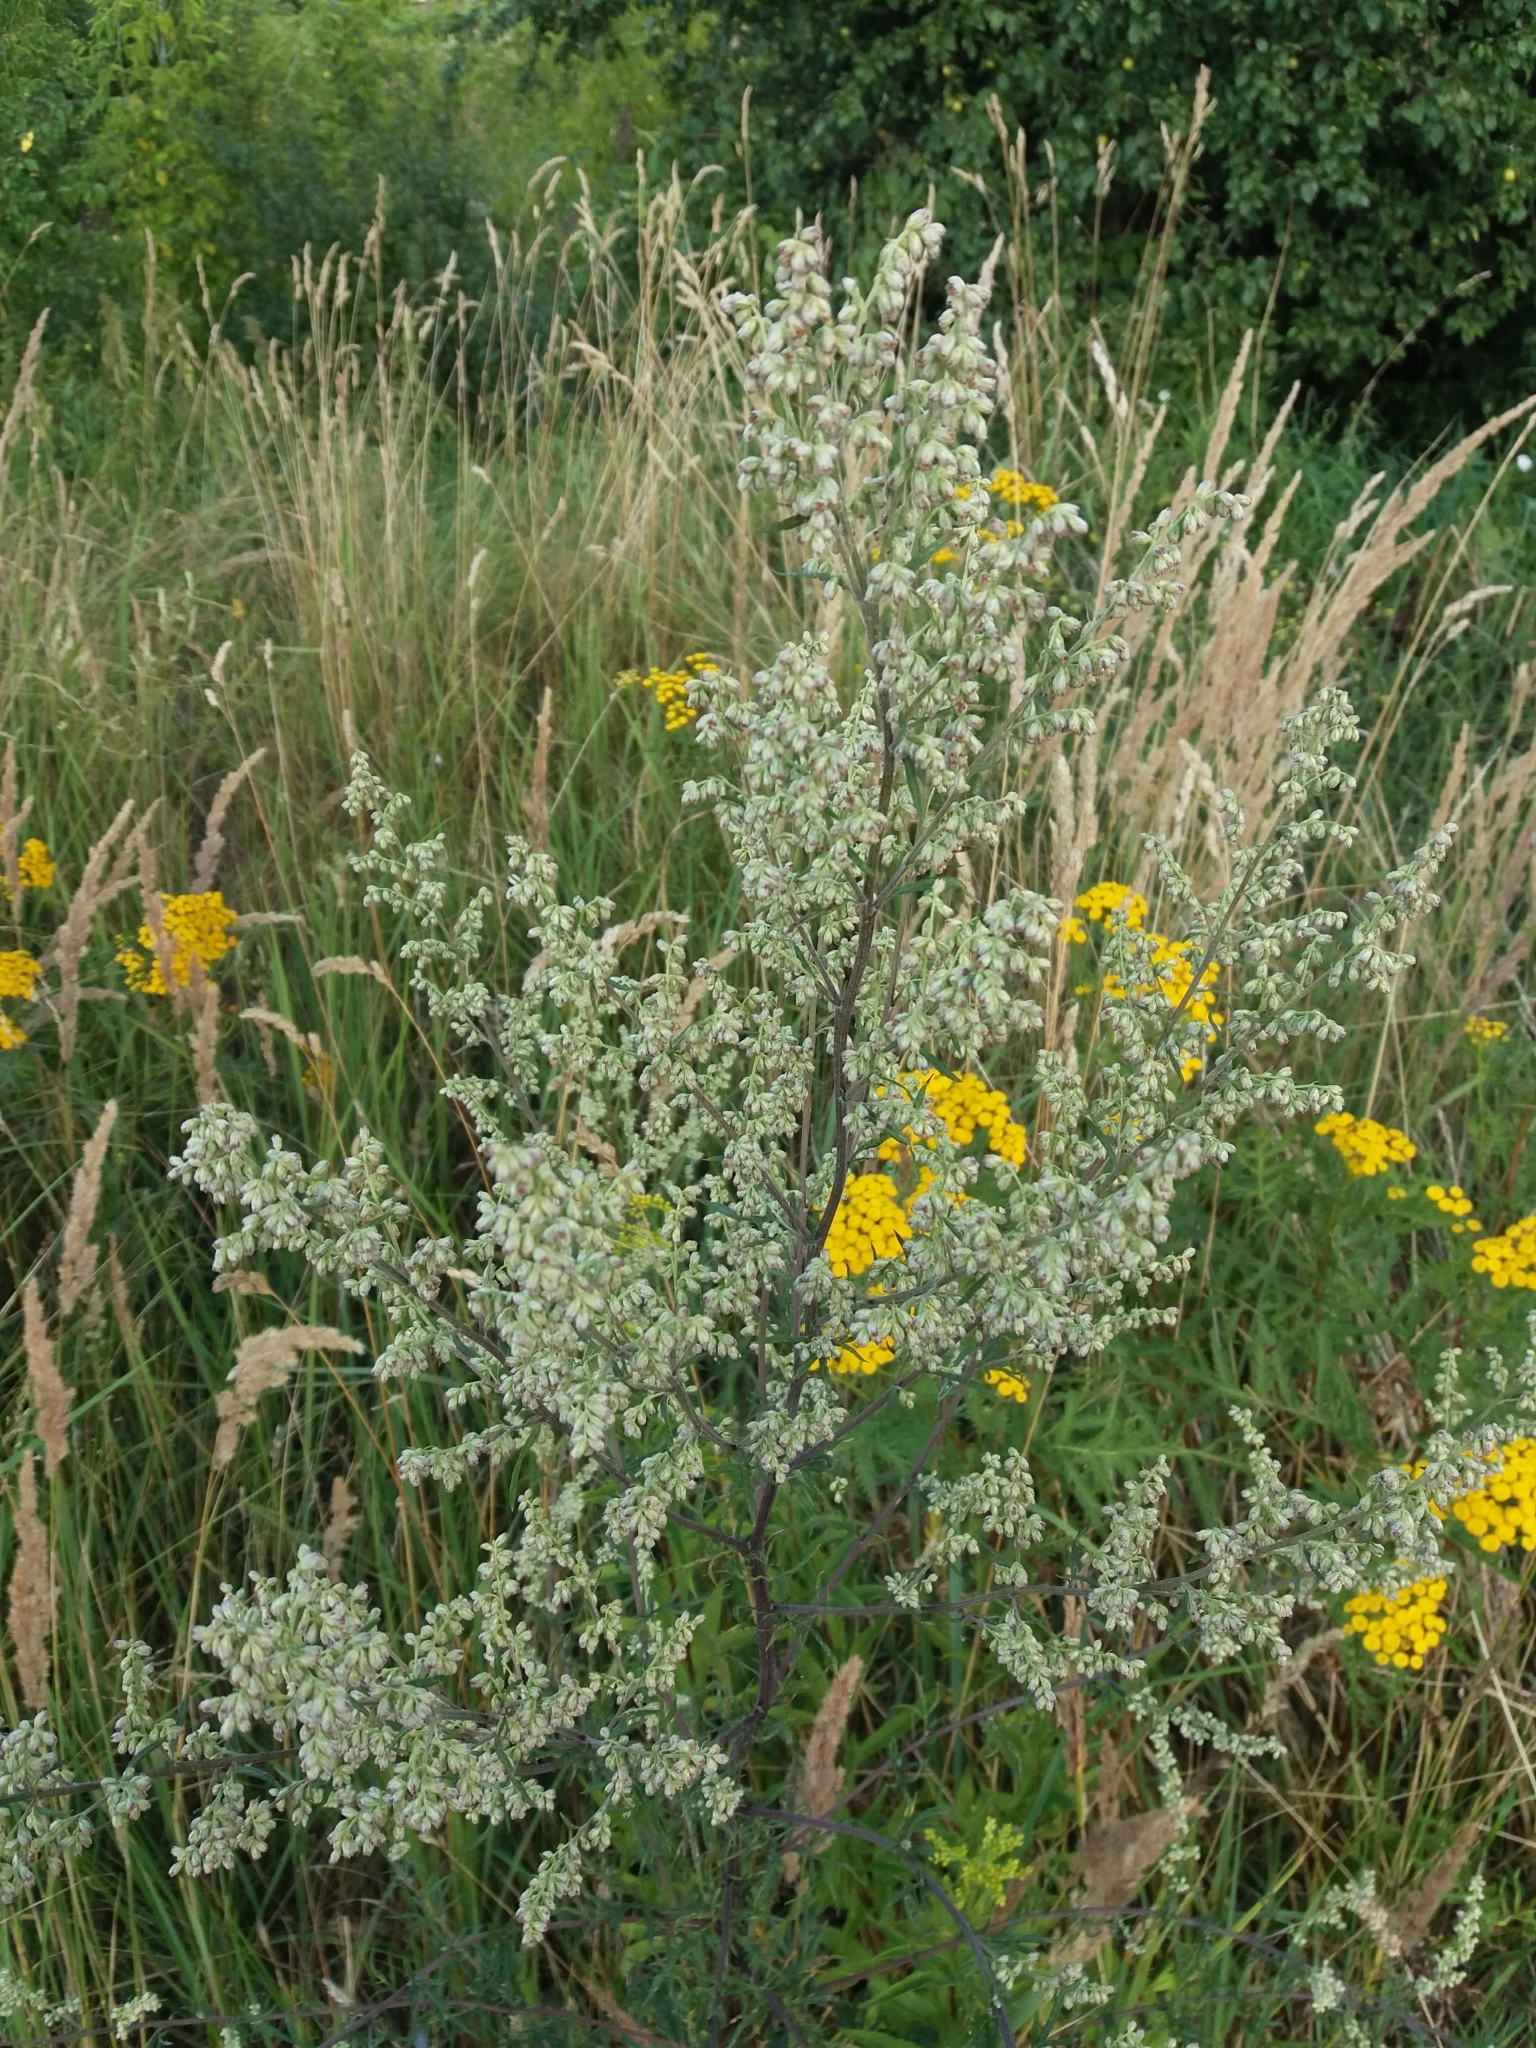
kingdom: Plantae
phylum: Tracheophyta
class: Magnoliopsida
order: Asterales
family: Asteraceae
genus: Artemisia
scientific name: Artemisia vulgaris
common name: Mugwort
